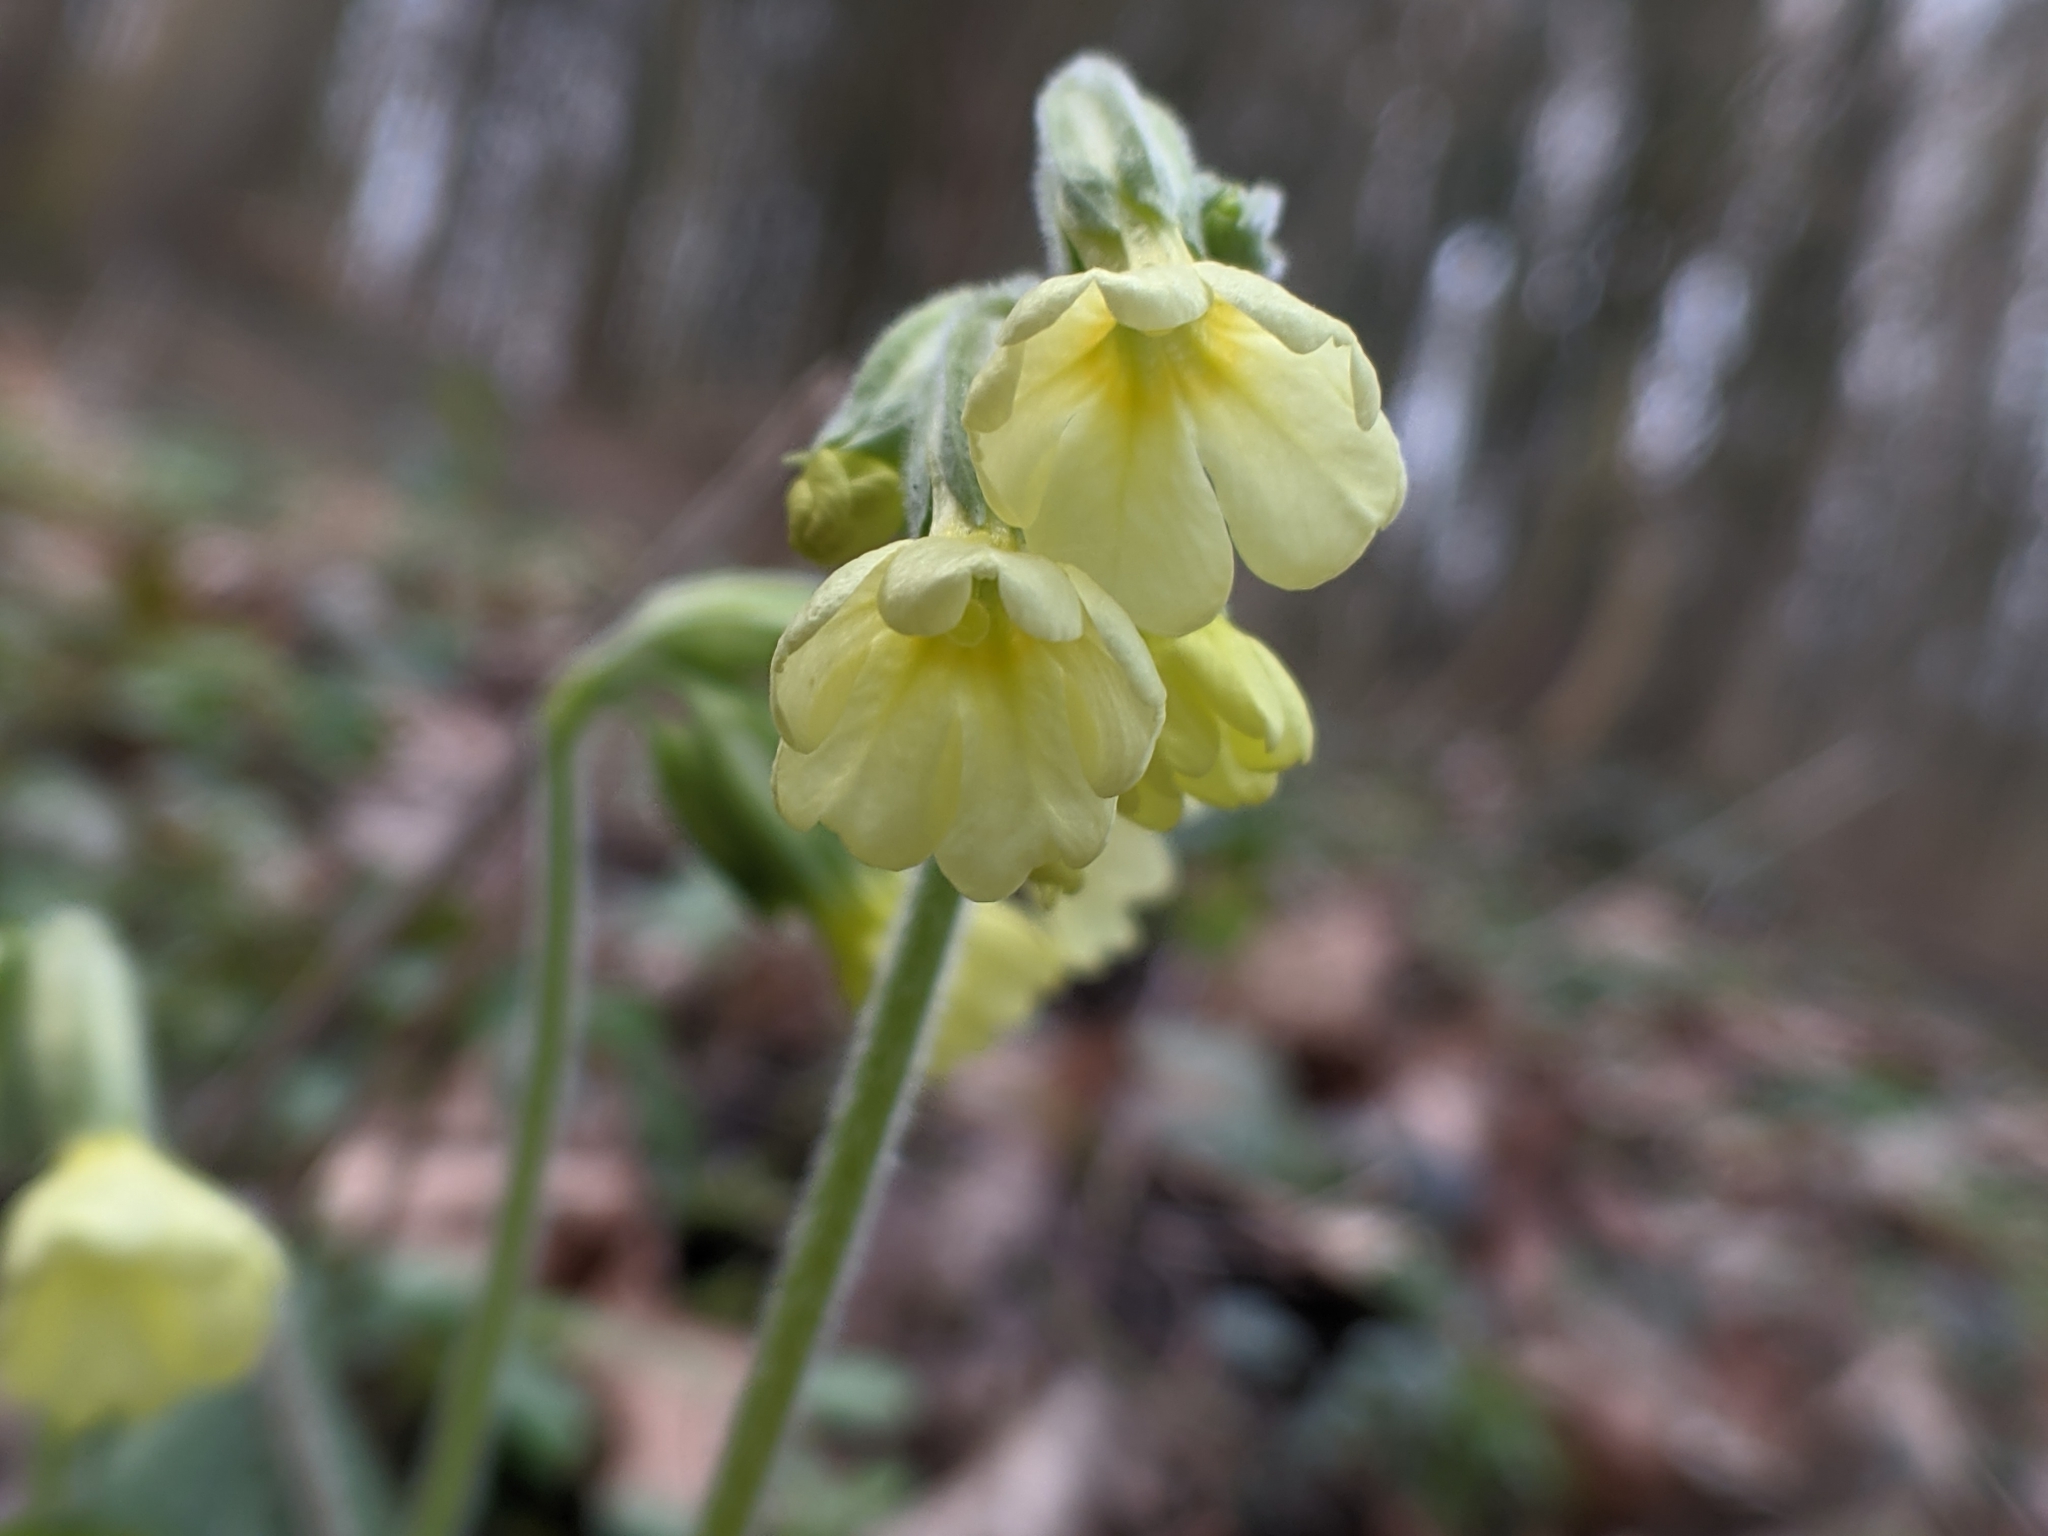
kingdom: Plantae
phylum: Tracheophyta
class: Magnoliopsida
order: Ericales
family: Primulaceae
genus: Primula
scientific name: Primula elatior
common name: Oxlip
